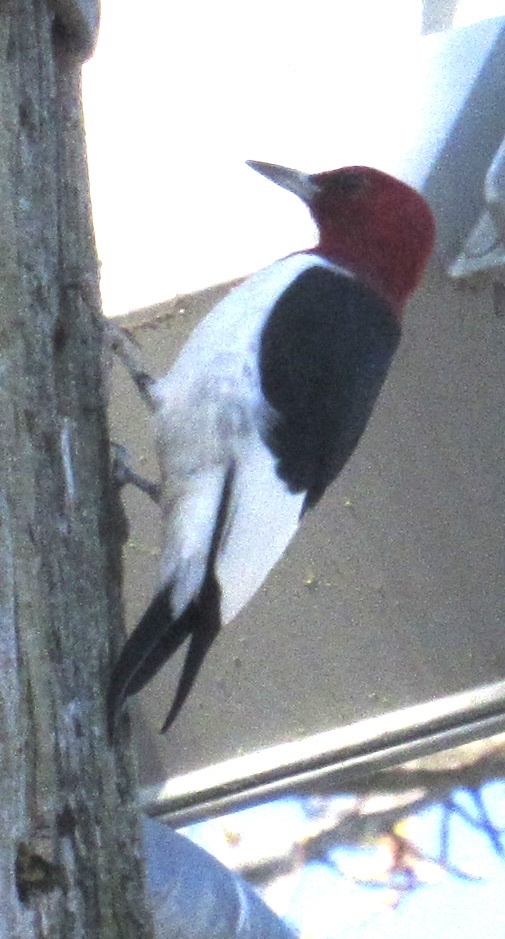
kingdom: Animalia
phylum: Chordata
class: Aves
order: Piciformes
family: Picidae
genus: Melanerpes
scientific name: Melanerpes erythrocephalus
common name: Red-headed woodpecker
